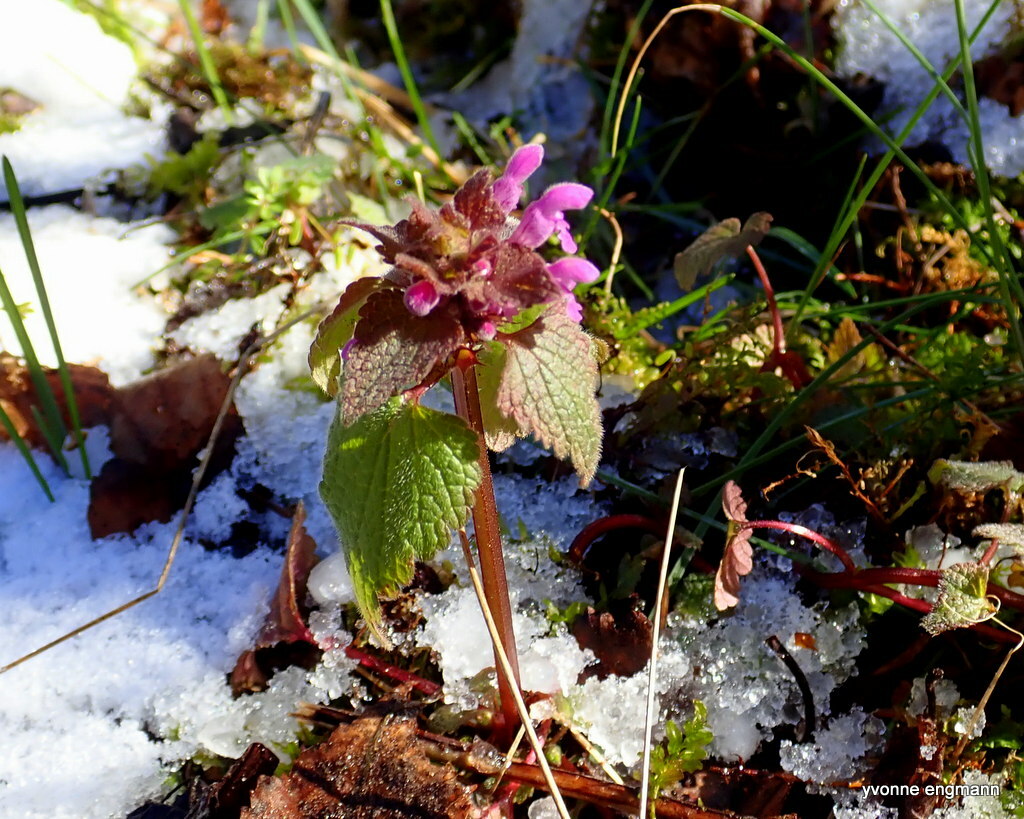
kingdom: Plantae
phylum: Tracheophyta
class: Magnoliopsida
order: Lamiales
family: Lamiaceae
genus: Lamium
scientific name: Lamium purpureum
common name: Red dead-nettle
